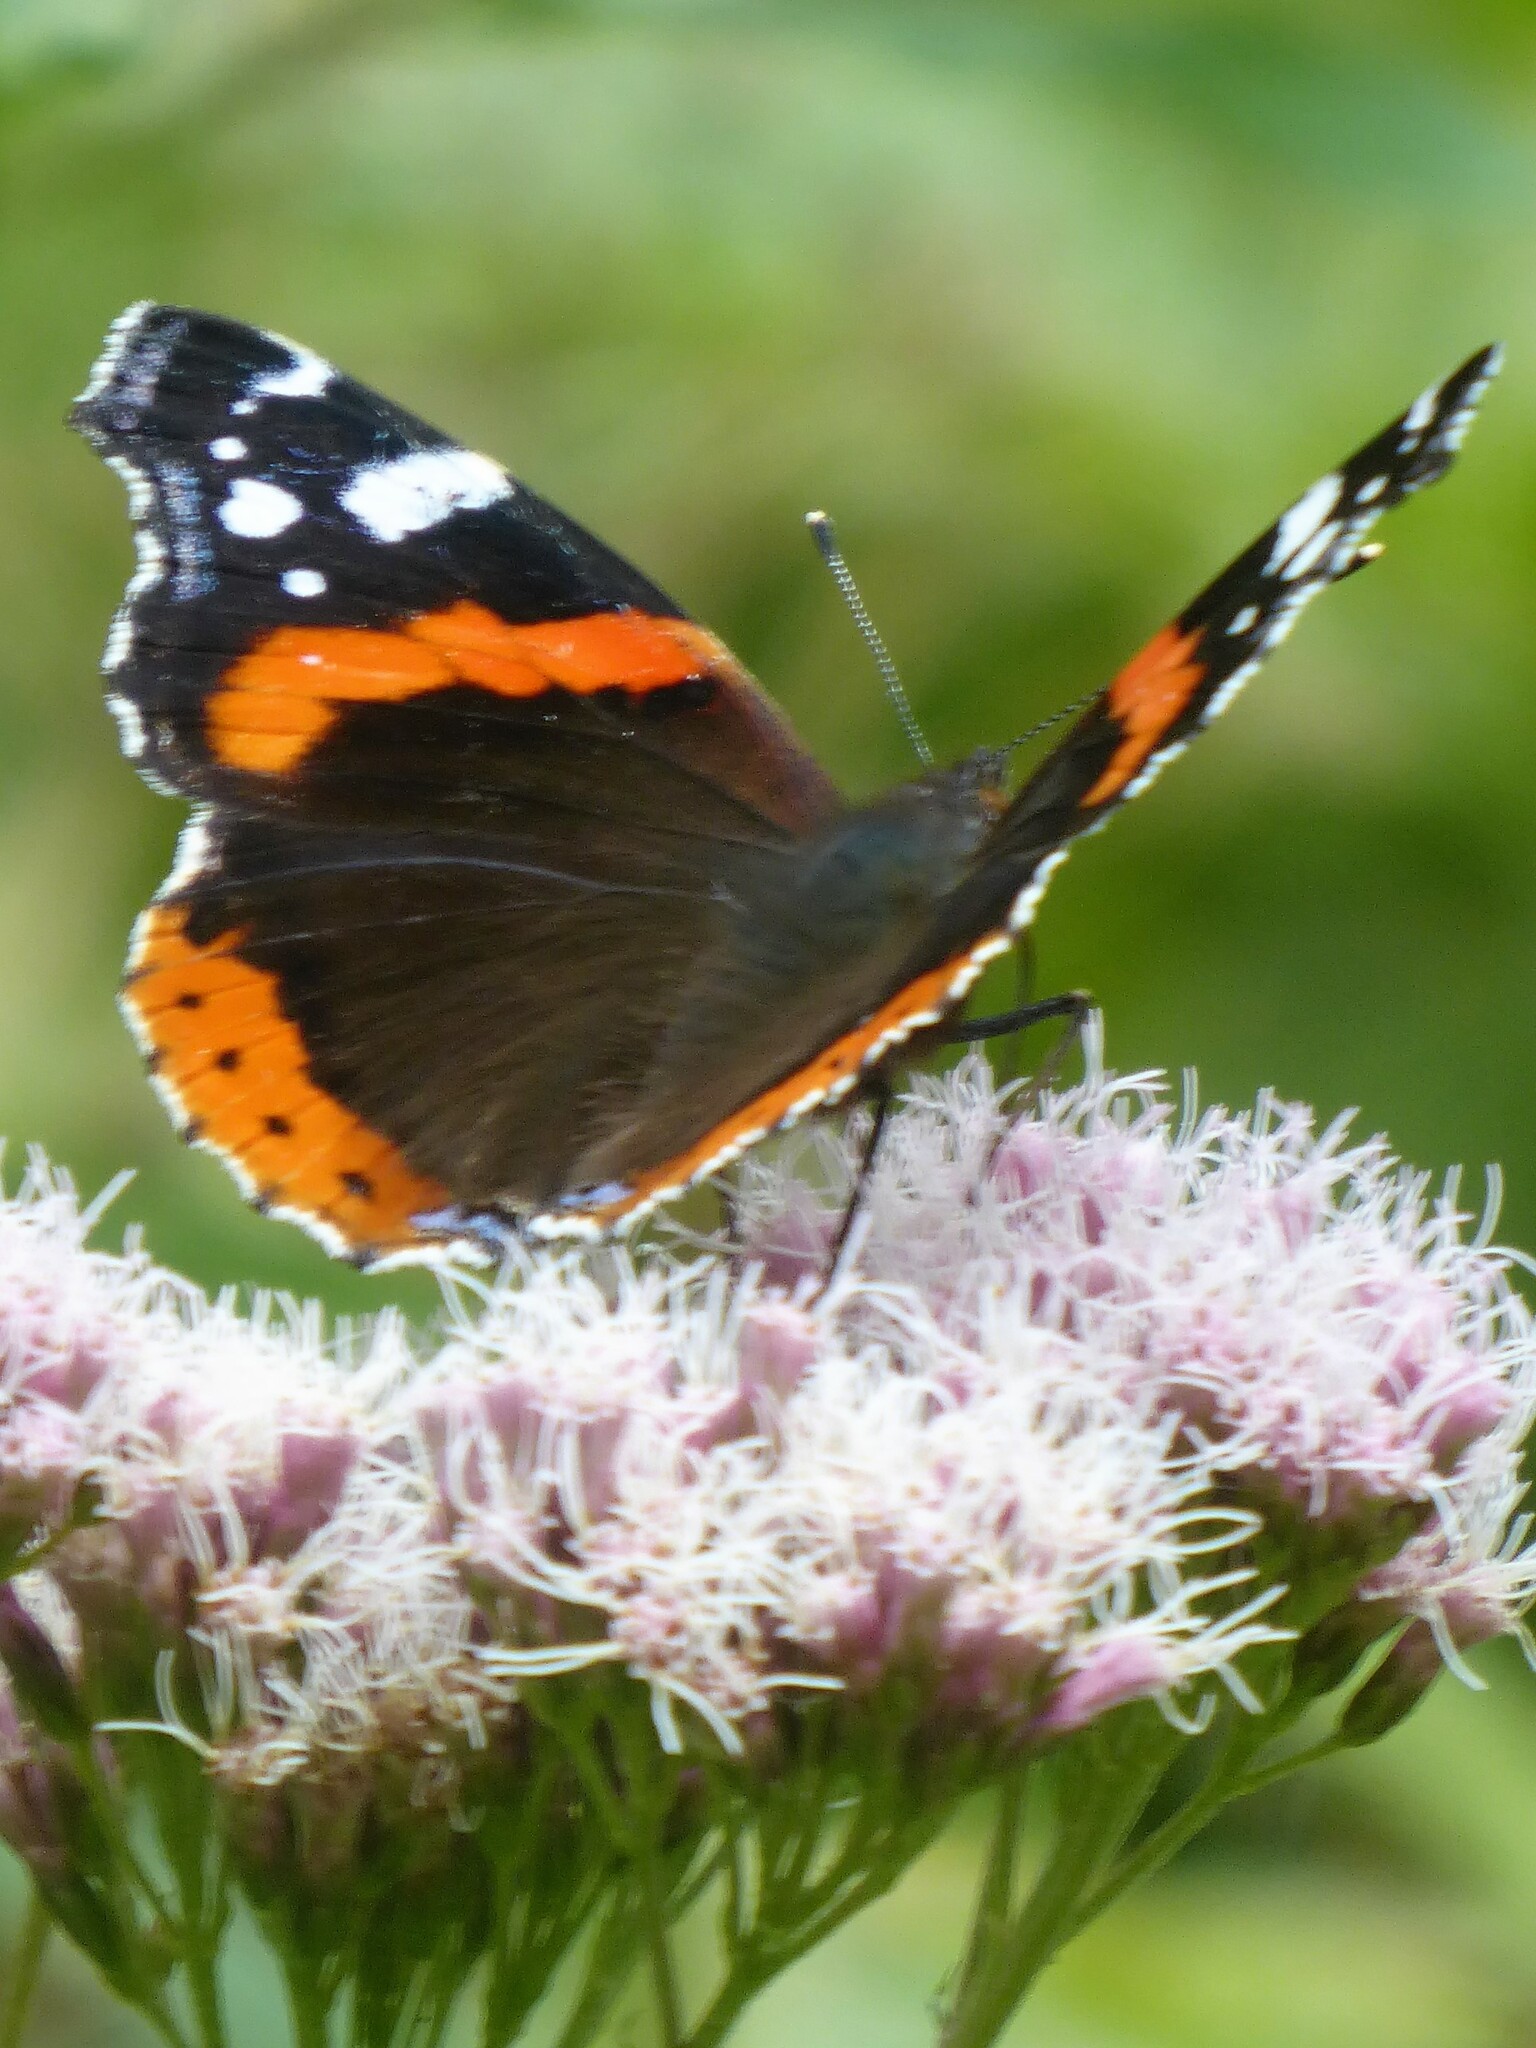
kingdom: Animalia
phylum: Arthropoda
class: Insecta
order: Lepidoptera
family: Nymphalidae
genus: Vanessa
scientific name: Vanessa atalanta
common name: Red admiral
